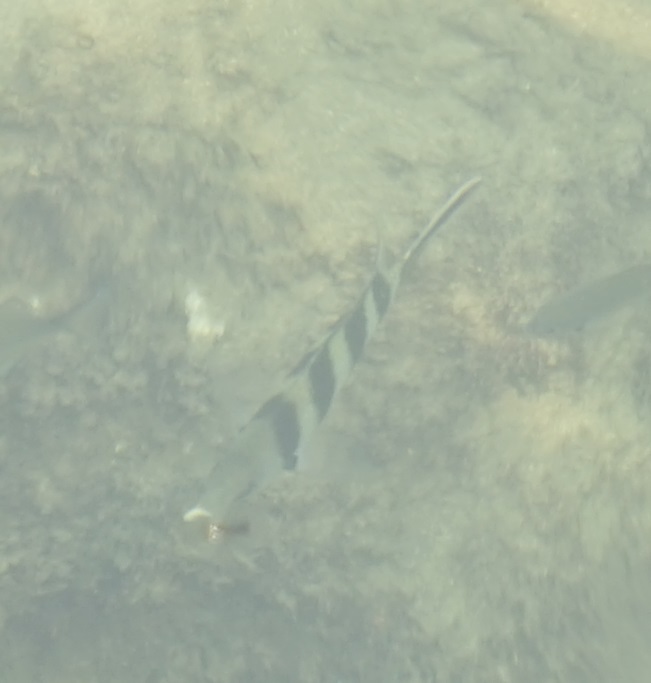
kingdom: Animalia
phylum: Chordata
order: Perciformes
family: Pomacentridae
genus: Abudefduf
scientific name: Abudefduf sexfasciatus
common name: Scissortail sergeant
